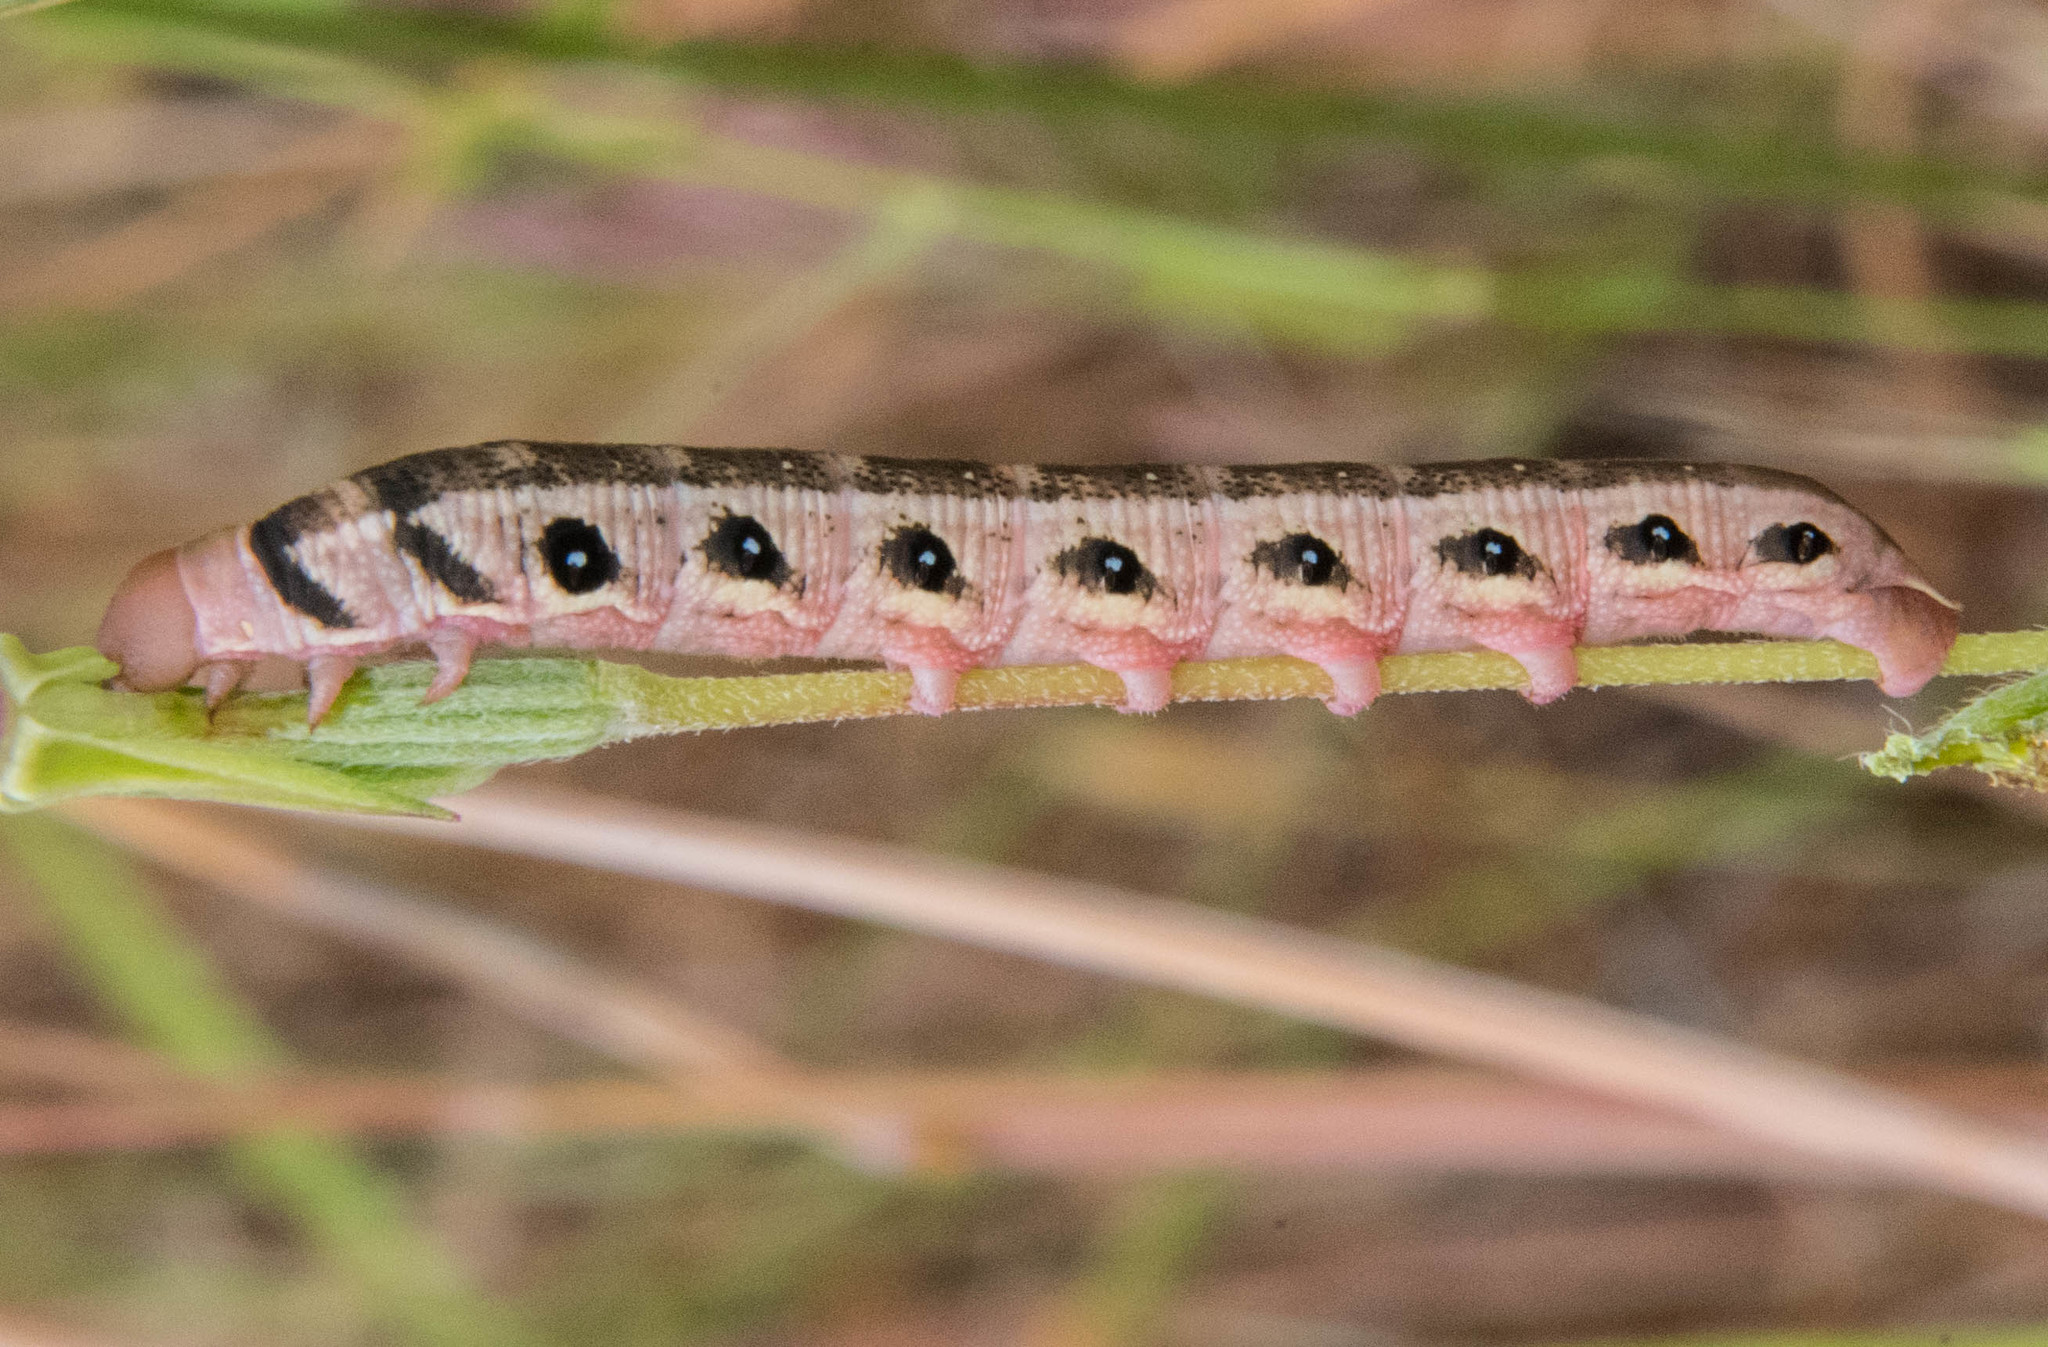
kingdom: Animalia
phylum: Arthropoda
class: Insecta
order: Lepidoptera
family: Sphingidae
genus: Proserpinus
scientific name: Proserpinus clarkiae
